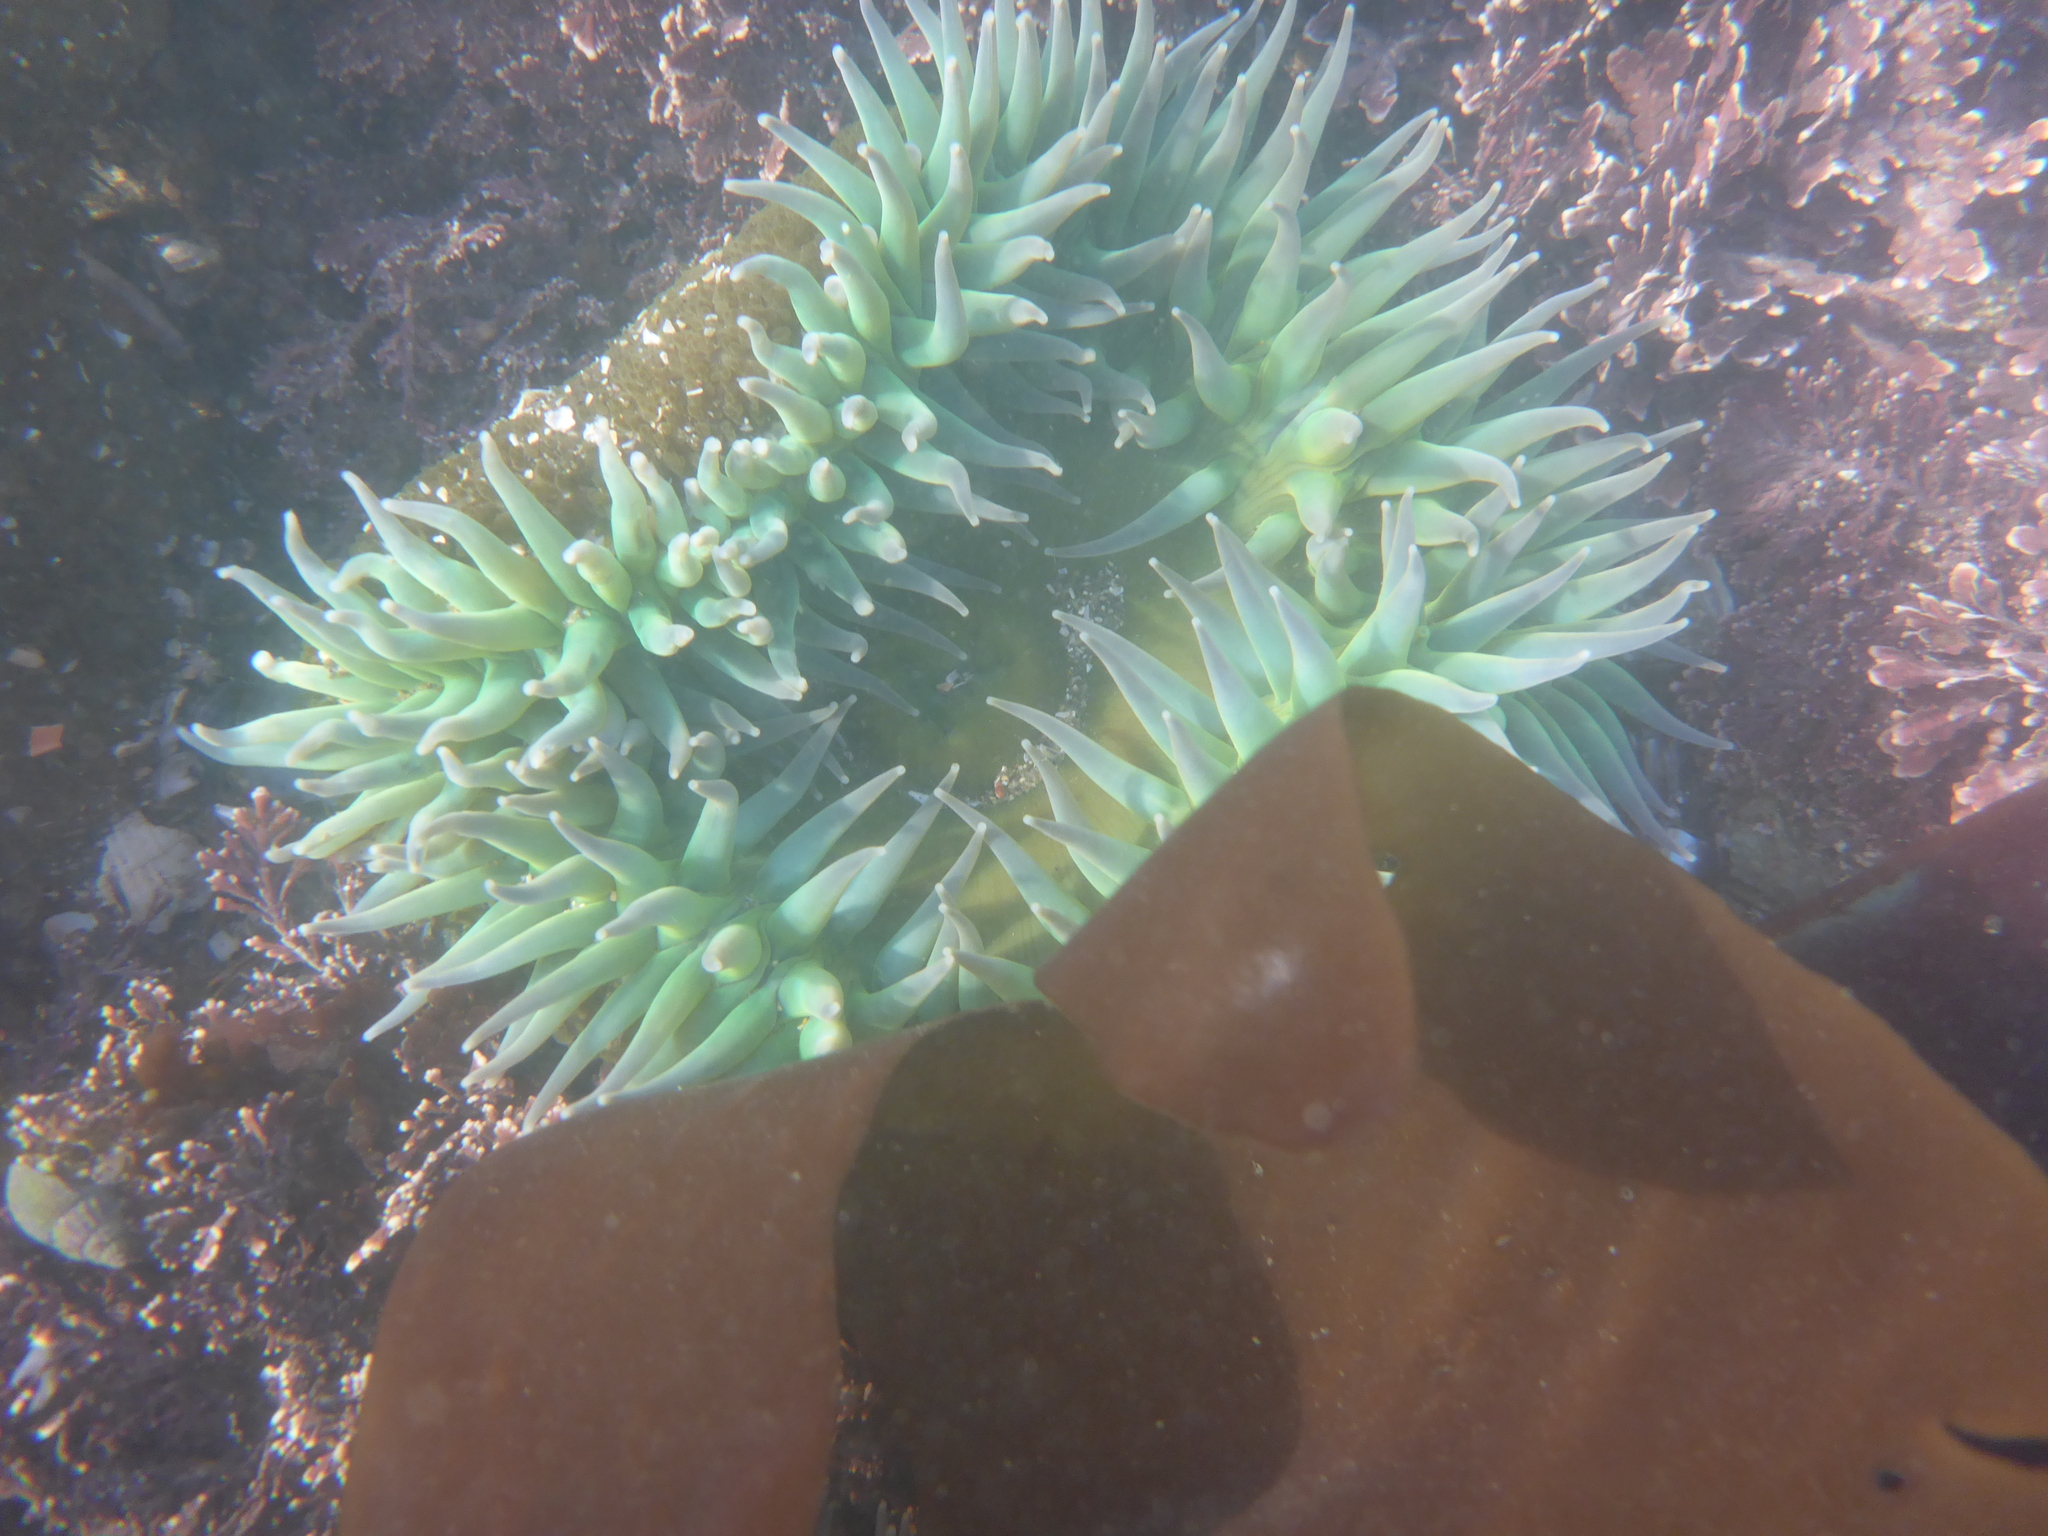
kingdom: Animalia
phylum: Cnidaria
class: Anthozoa
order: Actiniaria
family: Actiniidae
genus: Anthopleura
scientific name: Anthopleura xanthogrammica
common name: Giant green anemone
